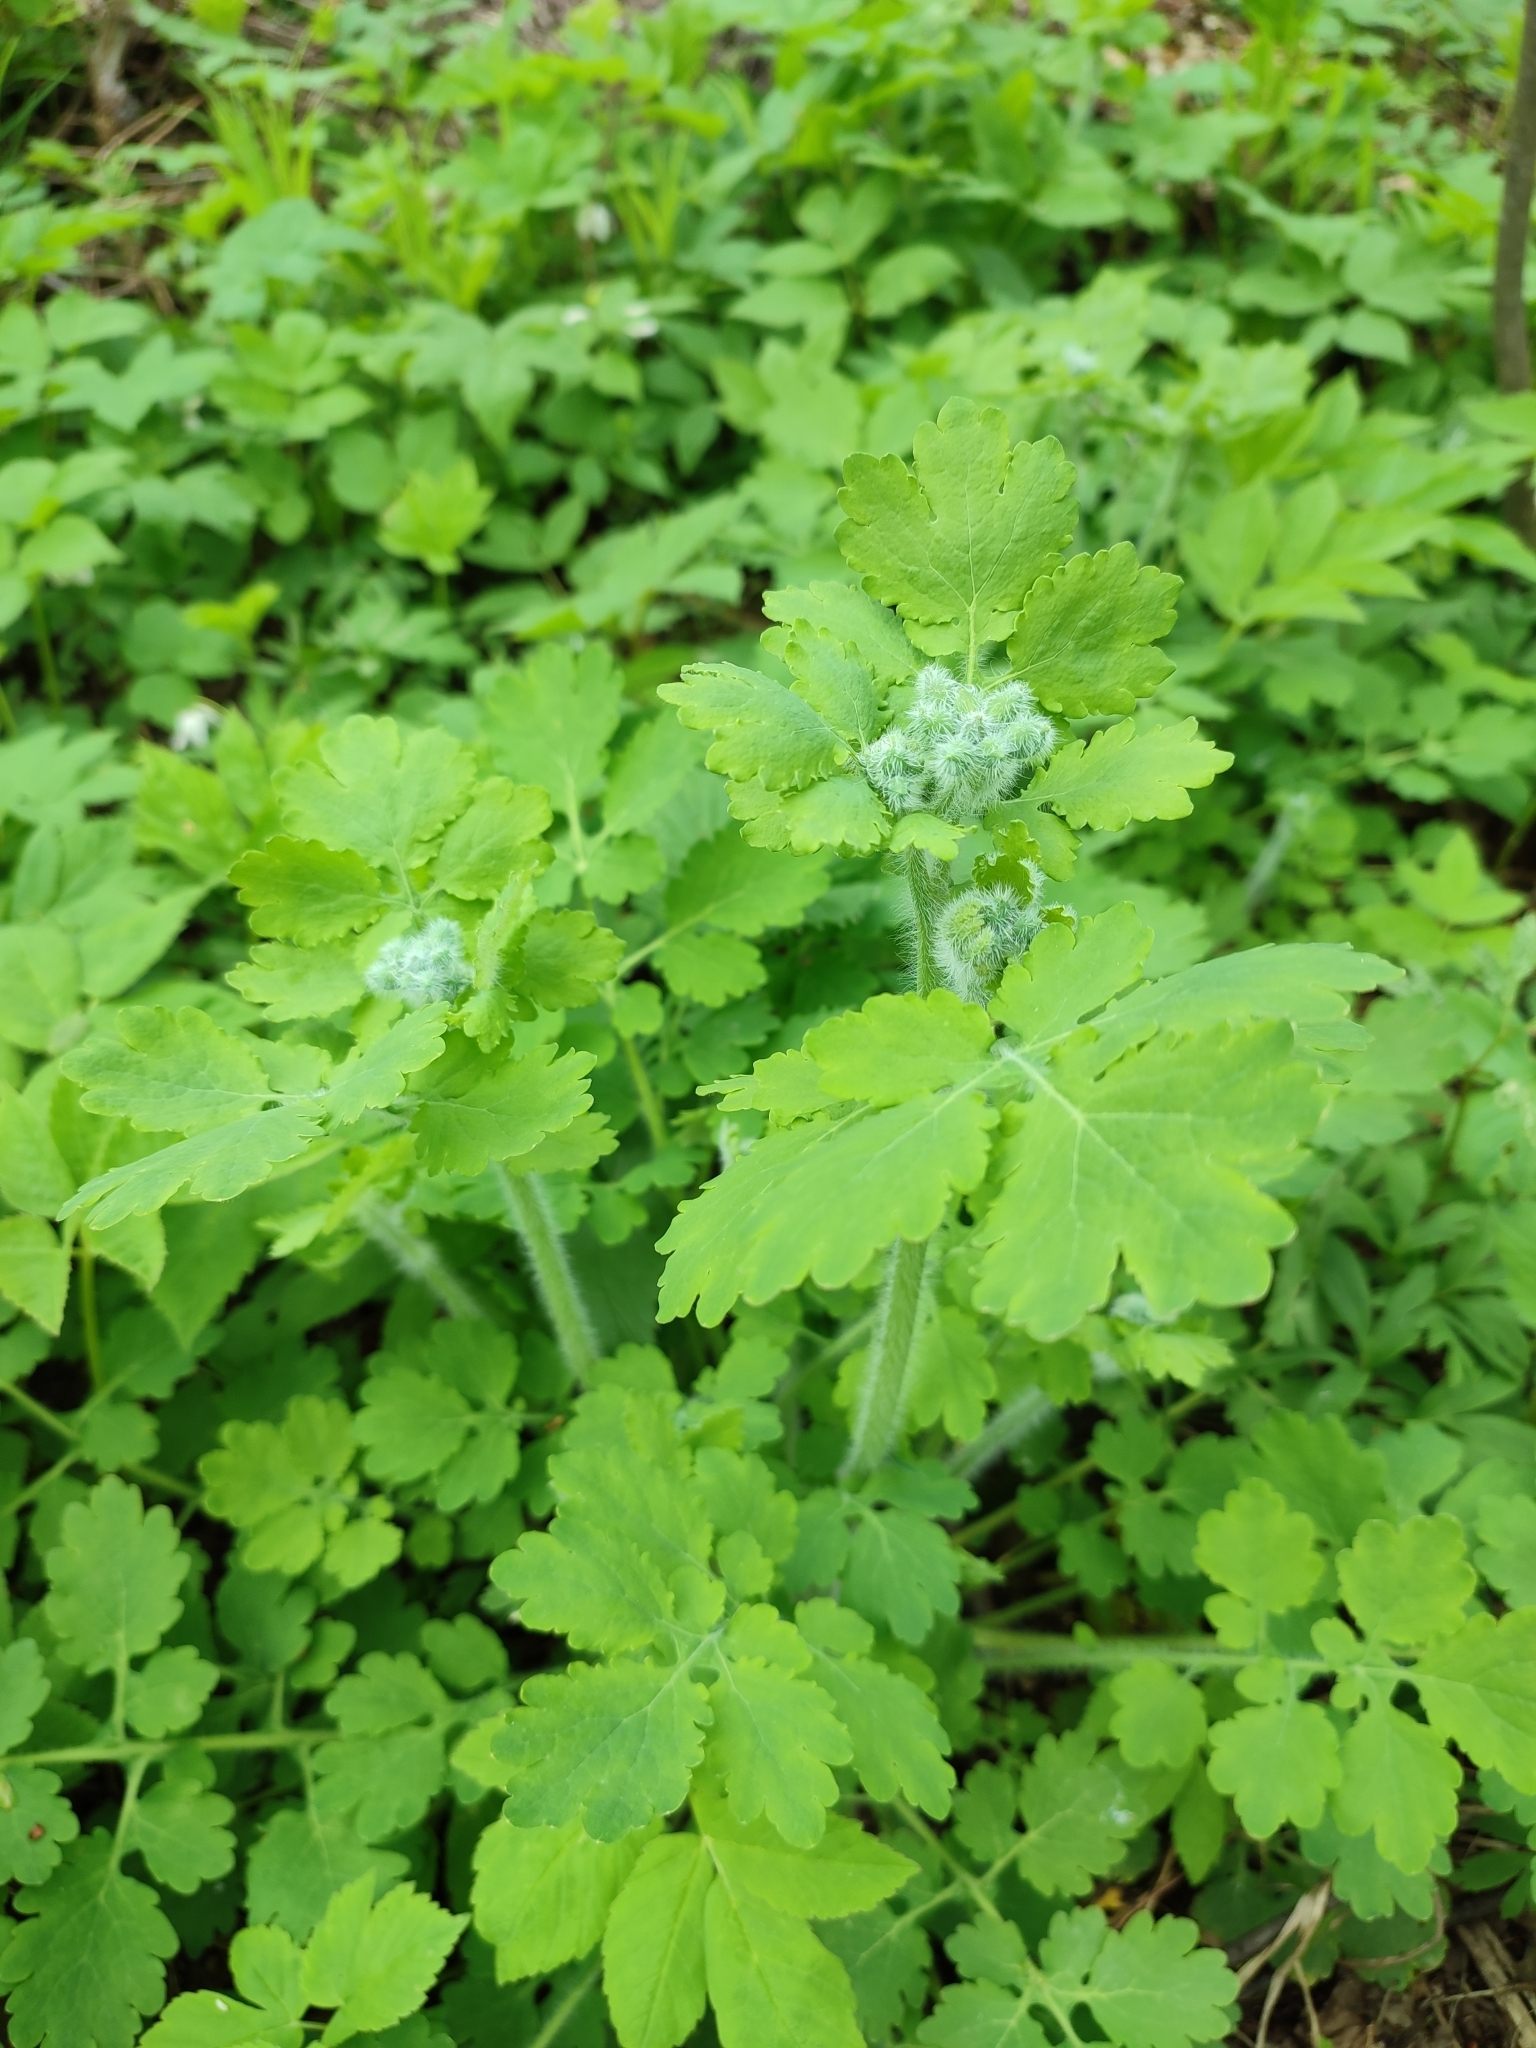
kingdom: Plantae
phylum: Tracheophyta
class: Magnoliopsida
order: Ranunculales
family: Papaveraceae
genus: Chelidonium
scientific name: Chelidonium majus
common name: Greater celandine
